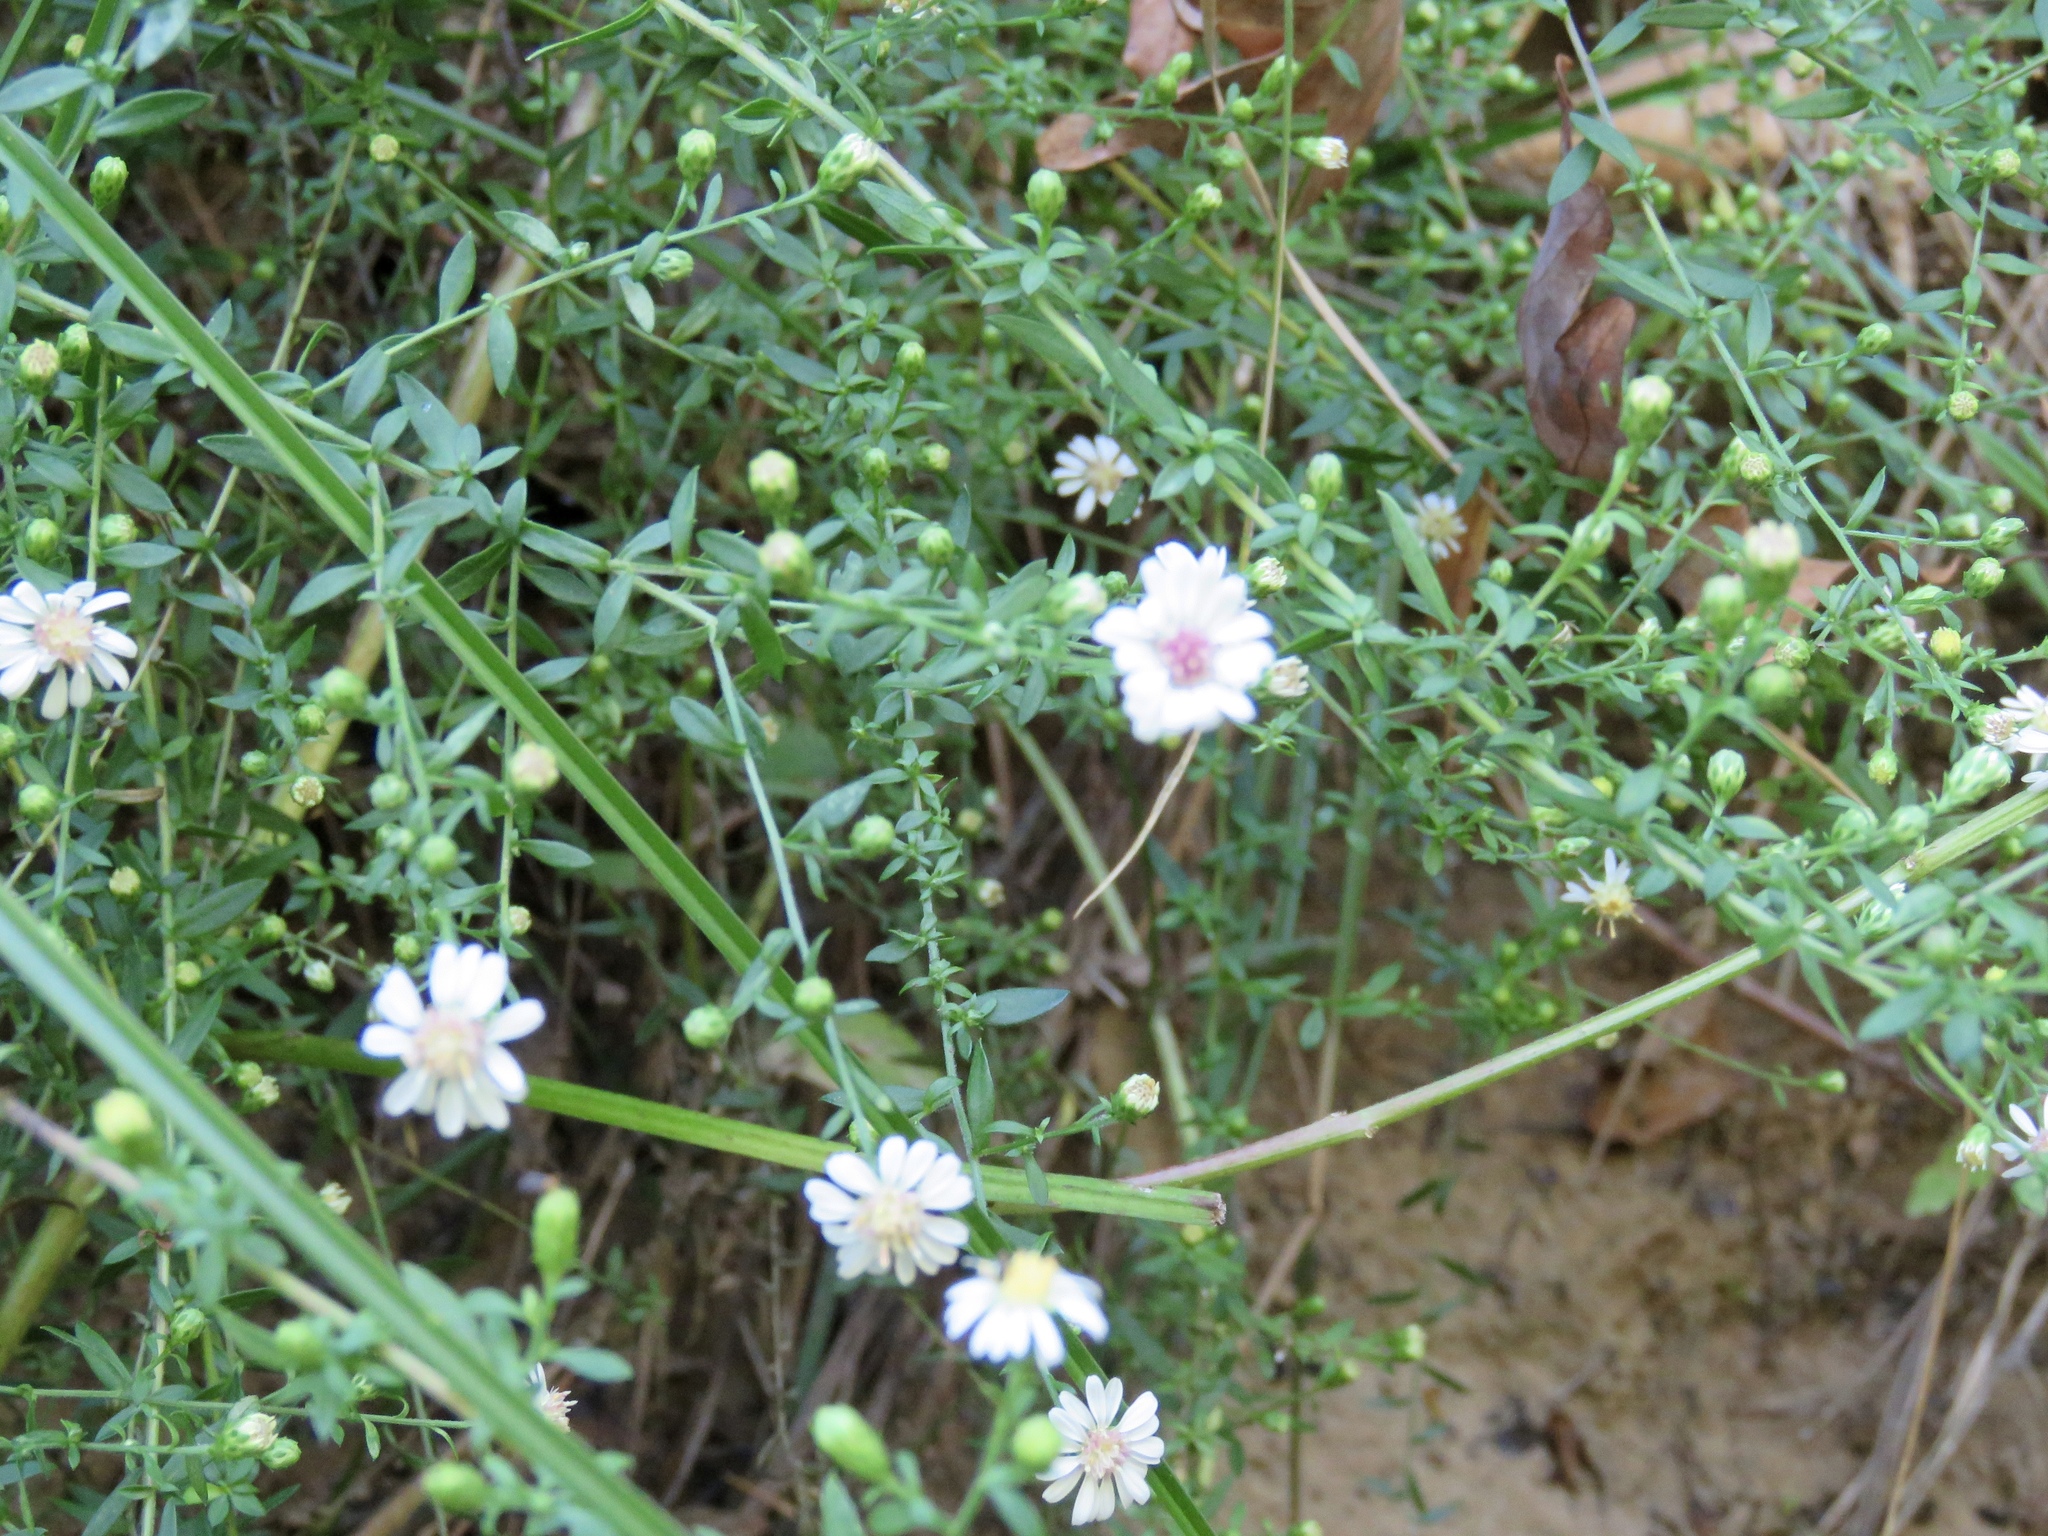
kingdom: Plantae
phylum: Tracheophyta
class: Magnoliopsida
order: Asterales
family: Asteraceae
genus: Symphyotrichum
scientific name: Symphyotrichum lateriflorum
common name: Calico aster
